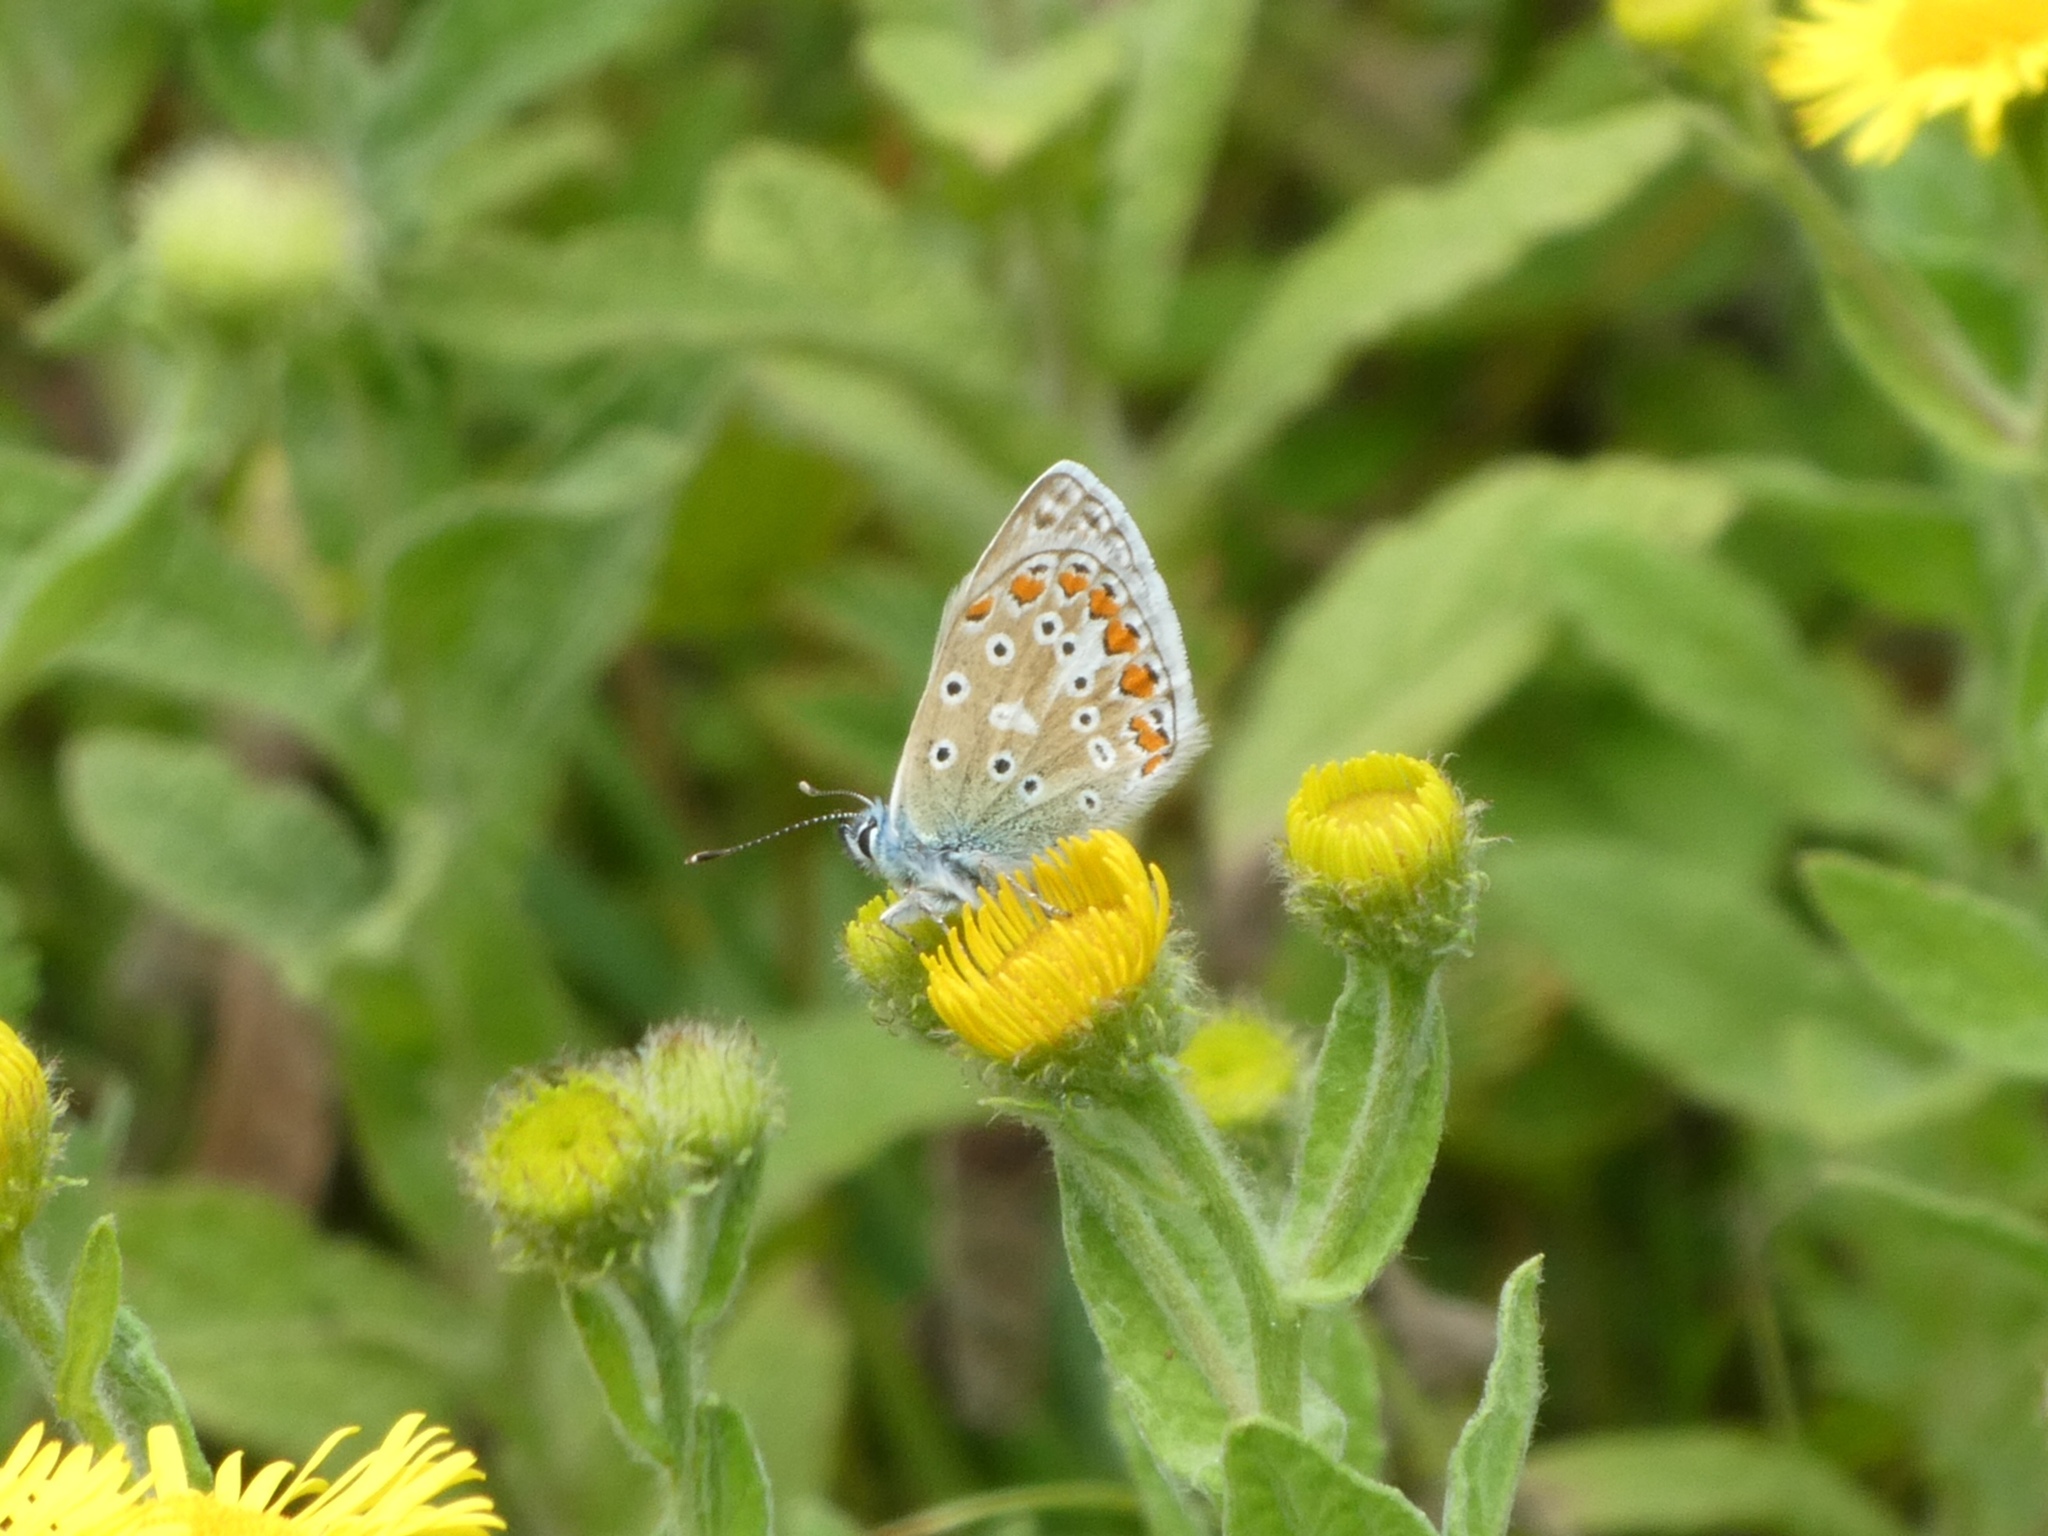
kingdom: Animalia
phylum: Arthropoda
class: Insecta
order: Lepidoptera
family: Lycaenidae
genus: Polyommatus
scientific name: Polyommatus icarus
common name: Common blue
